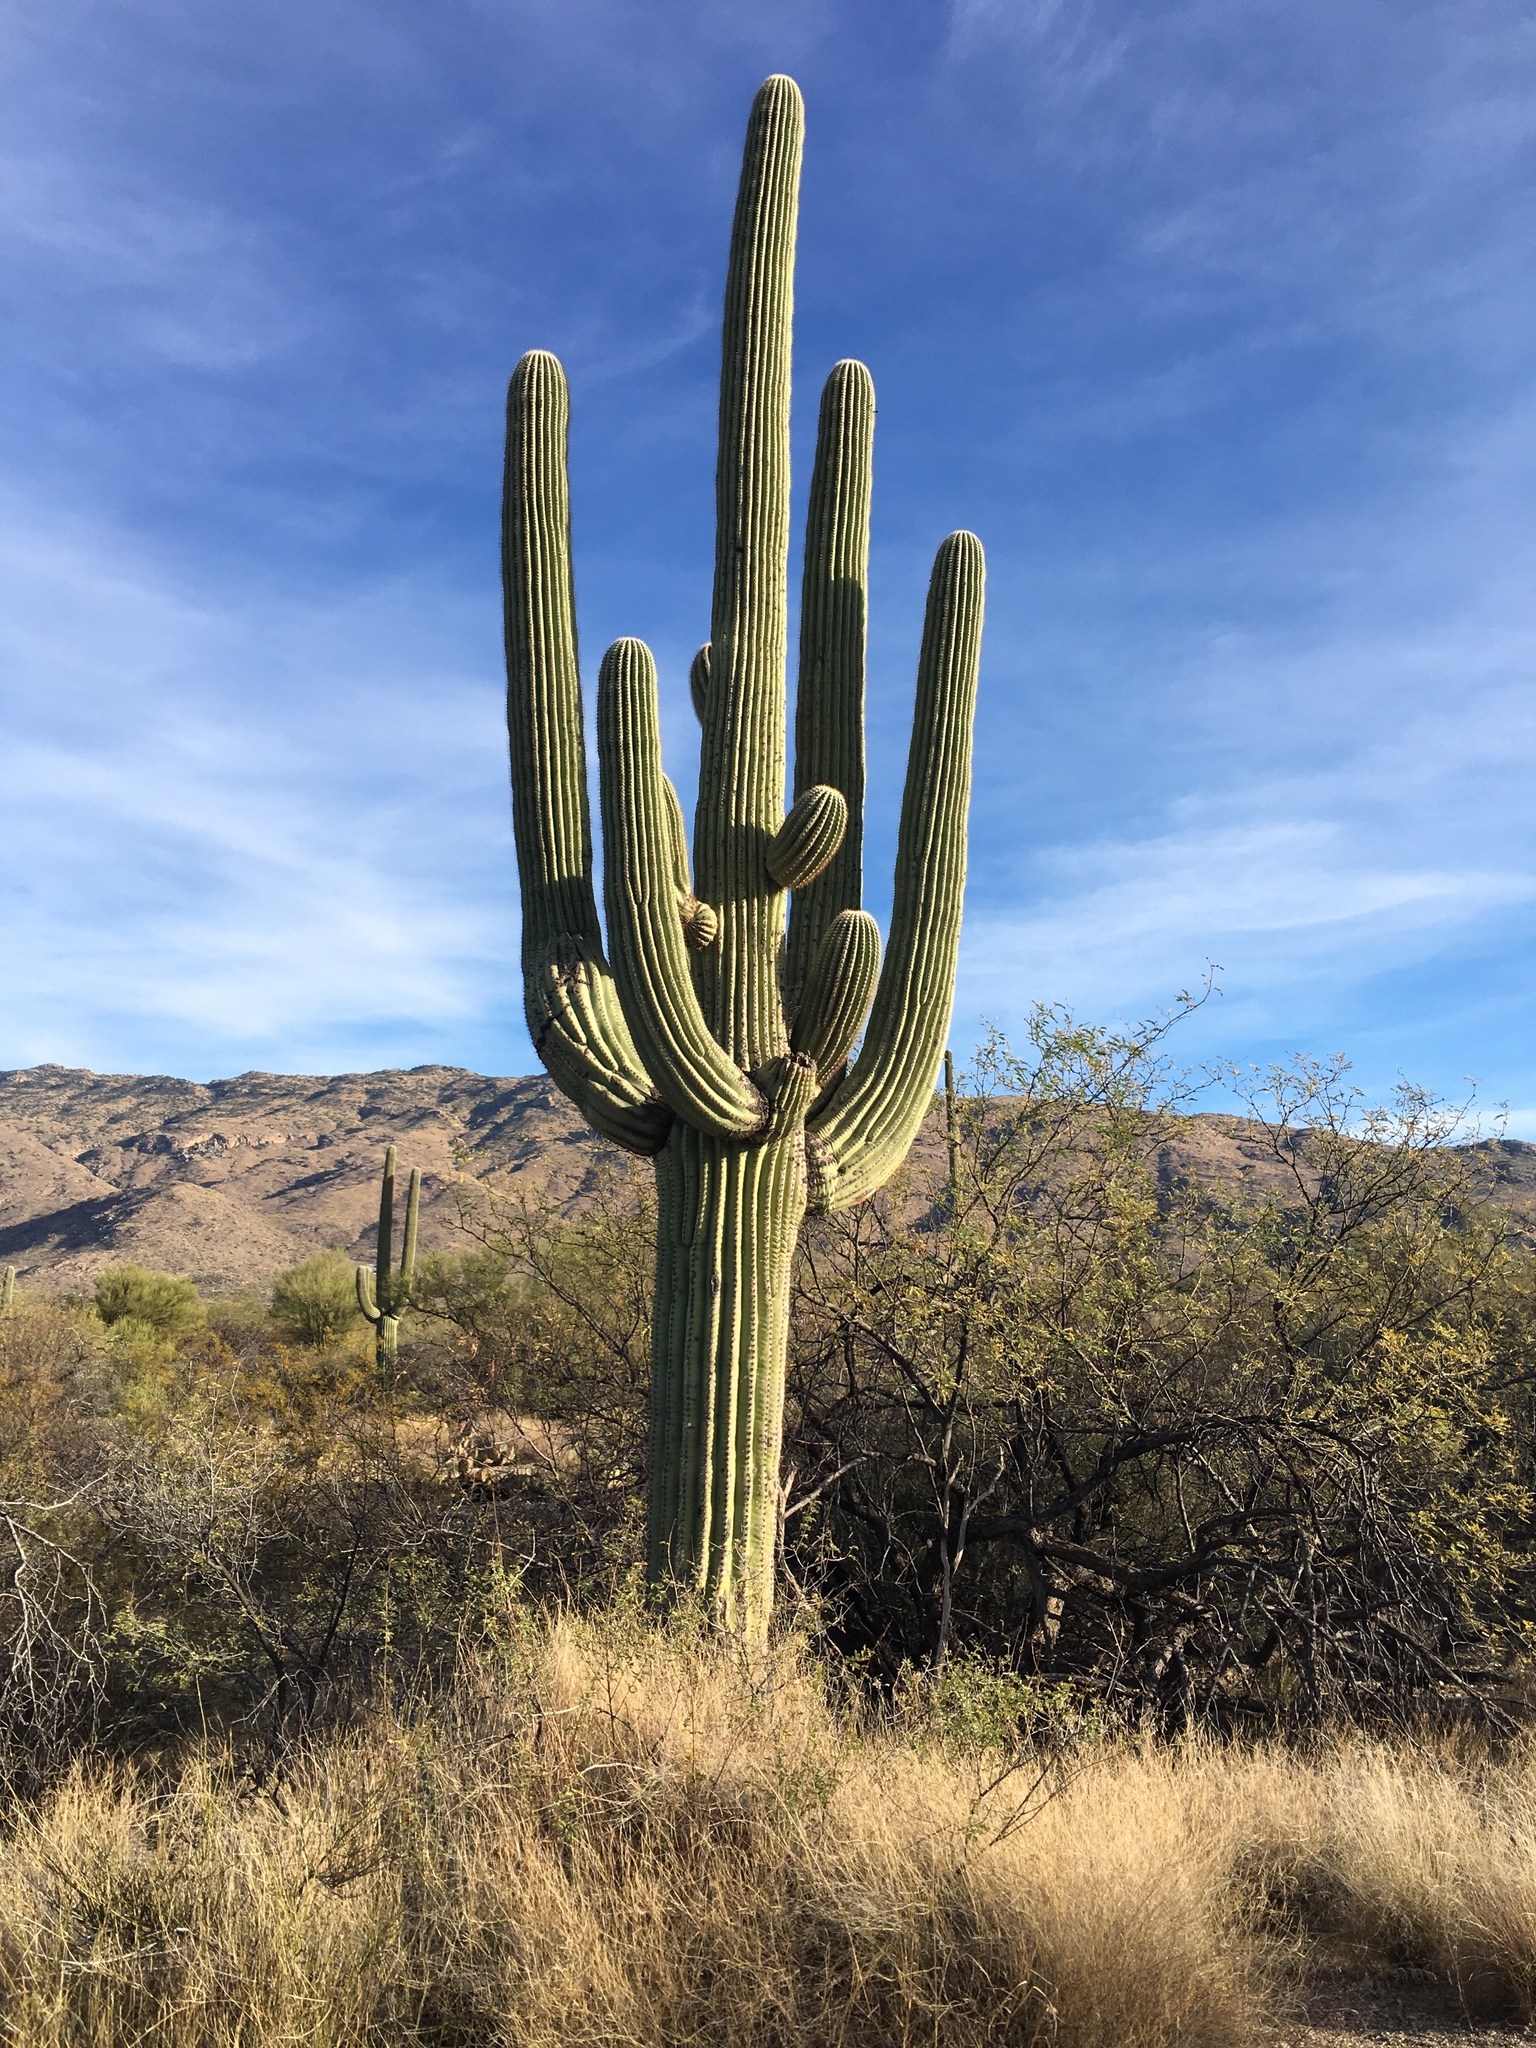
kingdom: Plantae
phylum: Tracheophyta
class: Magnoliopsida
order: Caryophyllales
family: Cactaceae
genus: Carnegiea
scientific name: Carnegiea gigantea
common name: Saguaro
